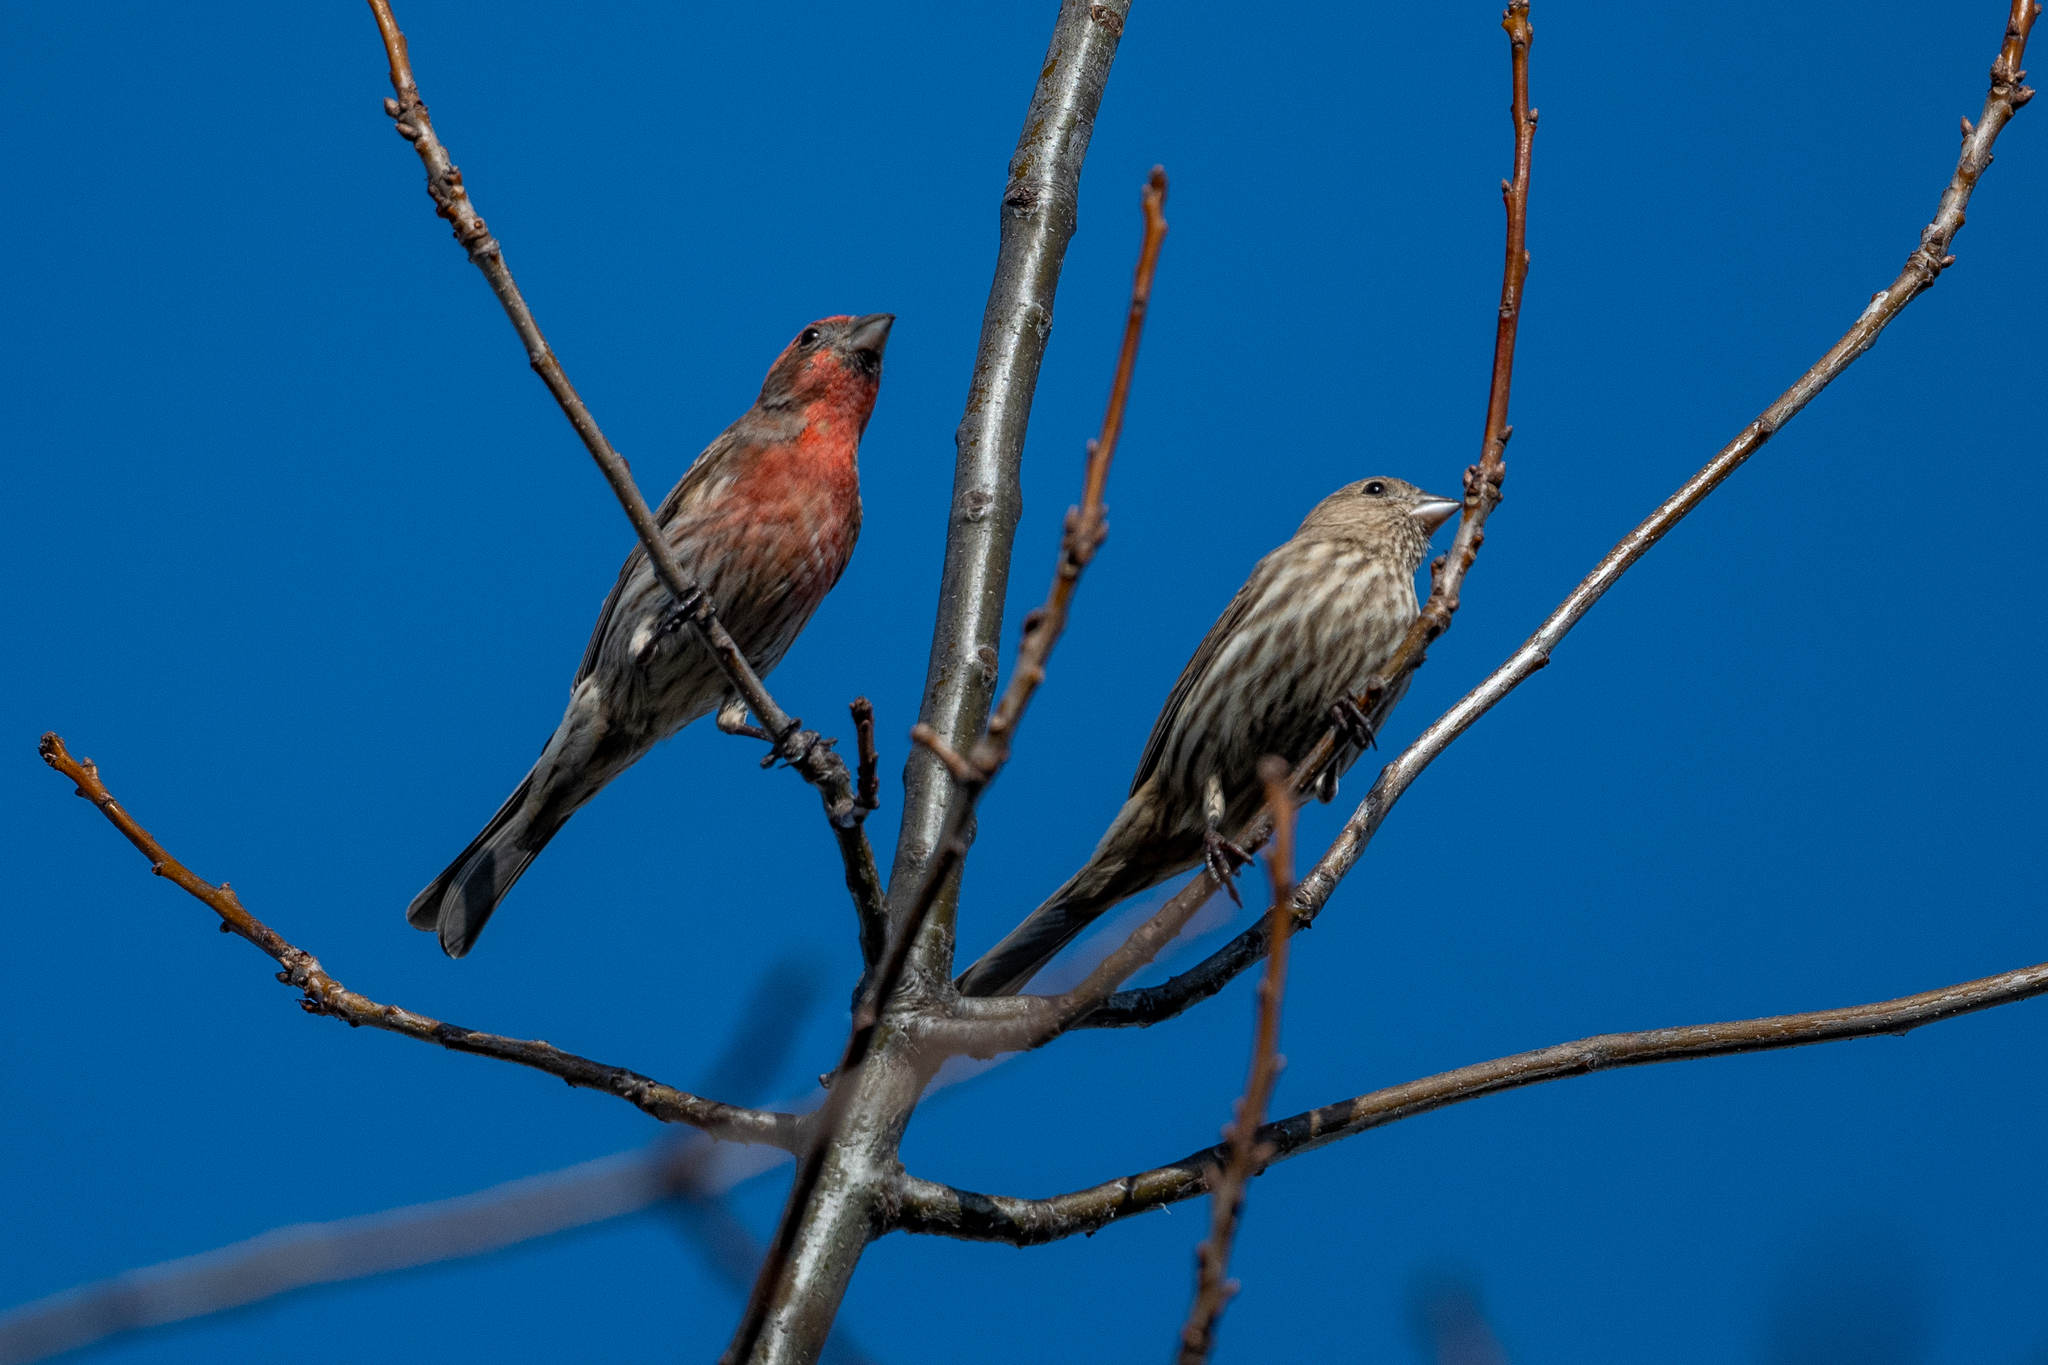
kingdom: Animalia
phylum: Chordata
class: Aves
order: Passeriformes
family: Fringillidae
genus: Haemorhous
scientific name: Haemorhous mexicanus
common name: House finch
